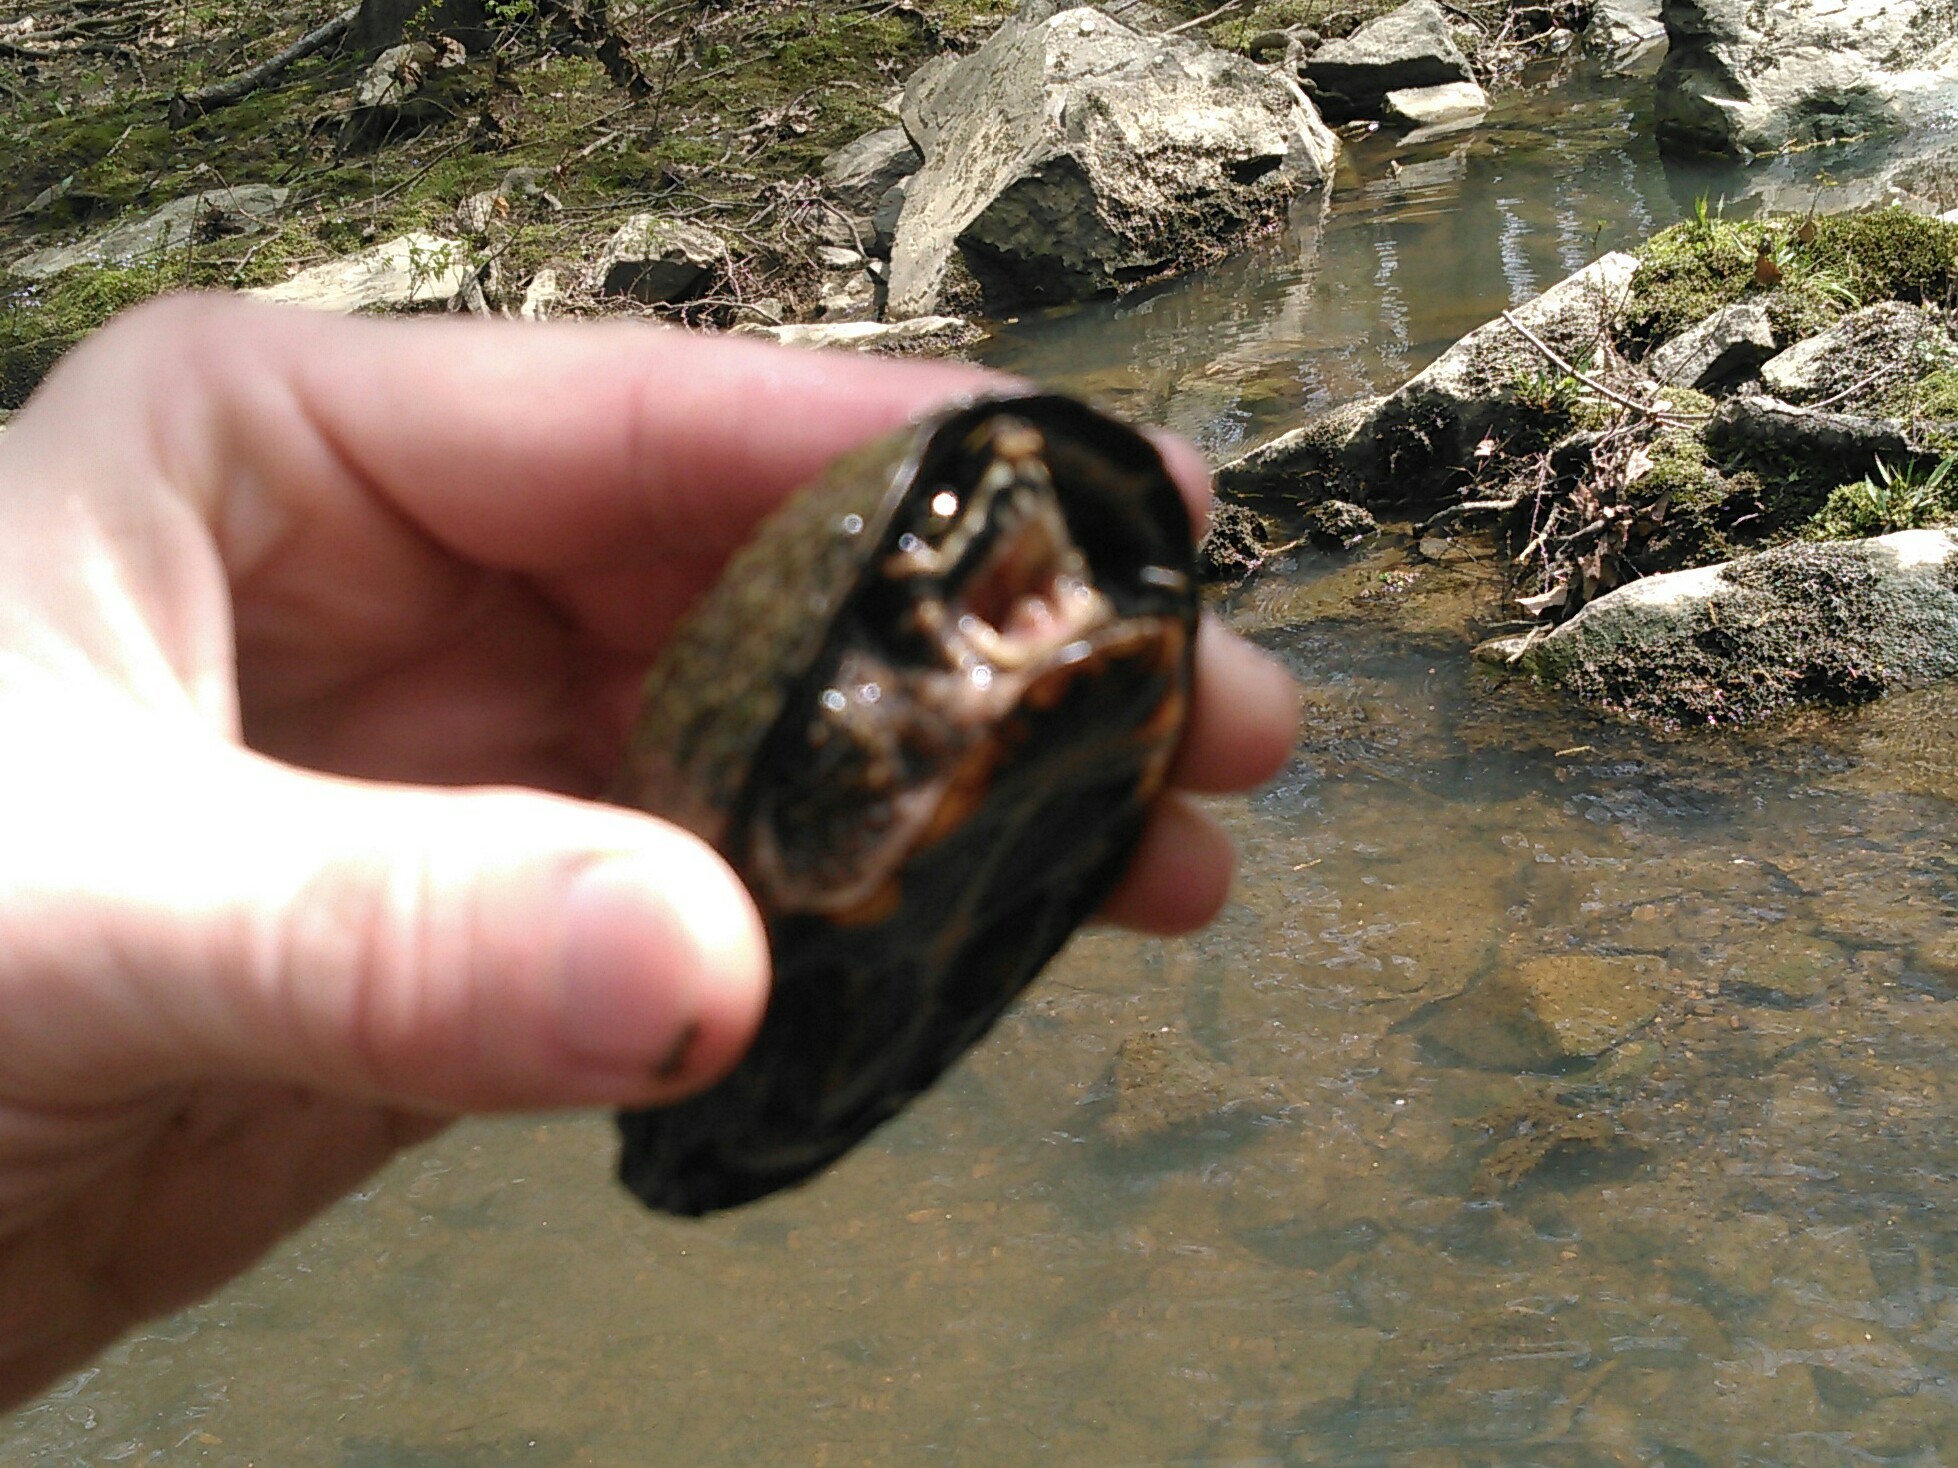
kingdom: Animalia
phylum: Chordata
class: Testudines
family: Kinosternidae
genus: Sternotherus
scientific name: Sternotherus odoratus
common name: Common musk turtle
